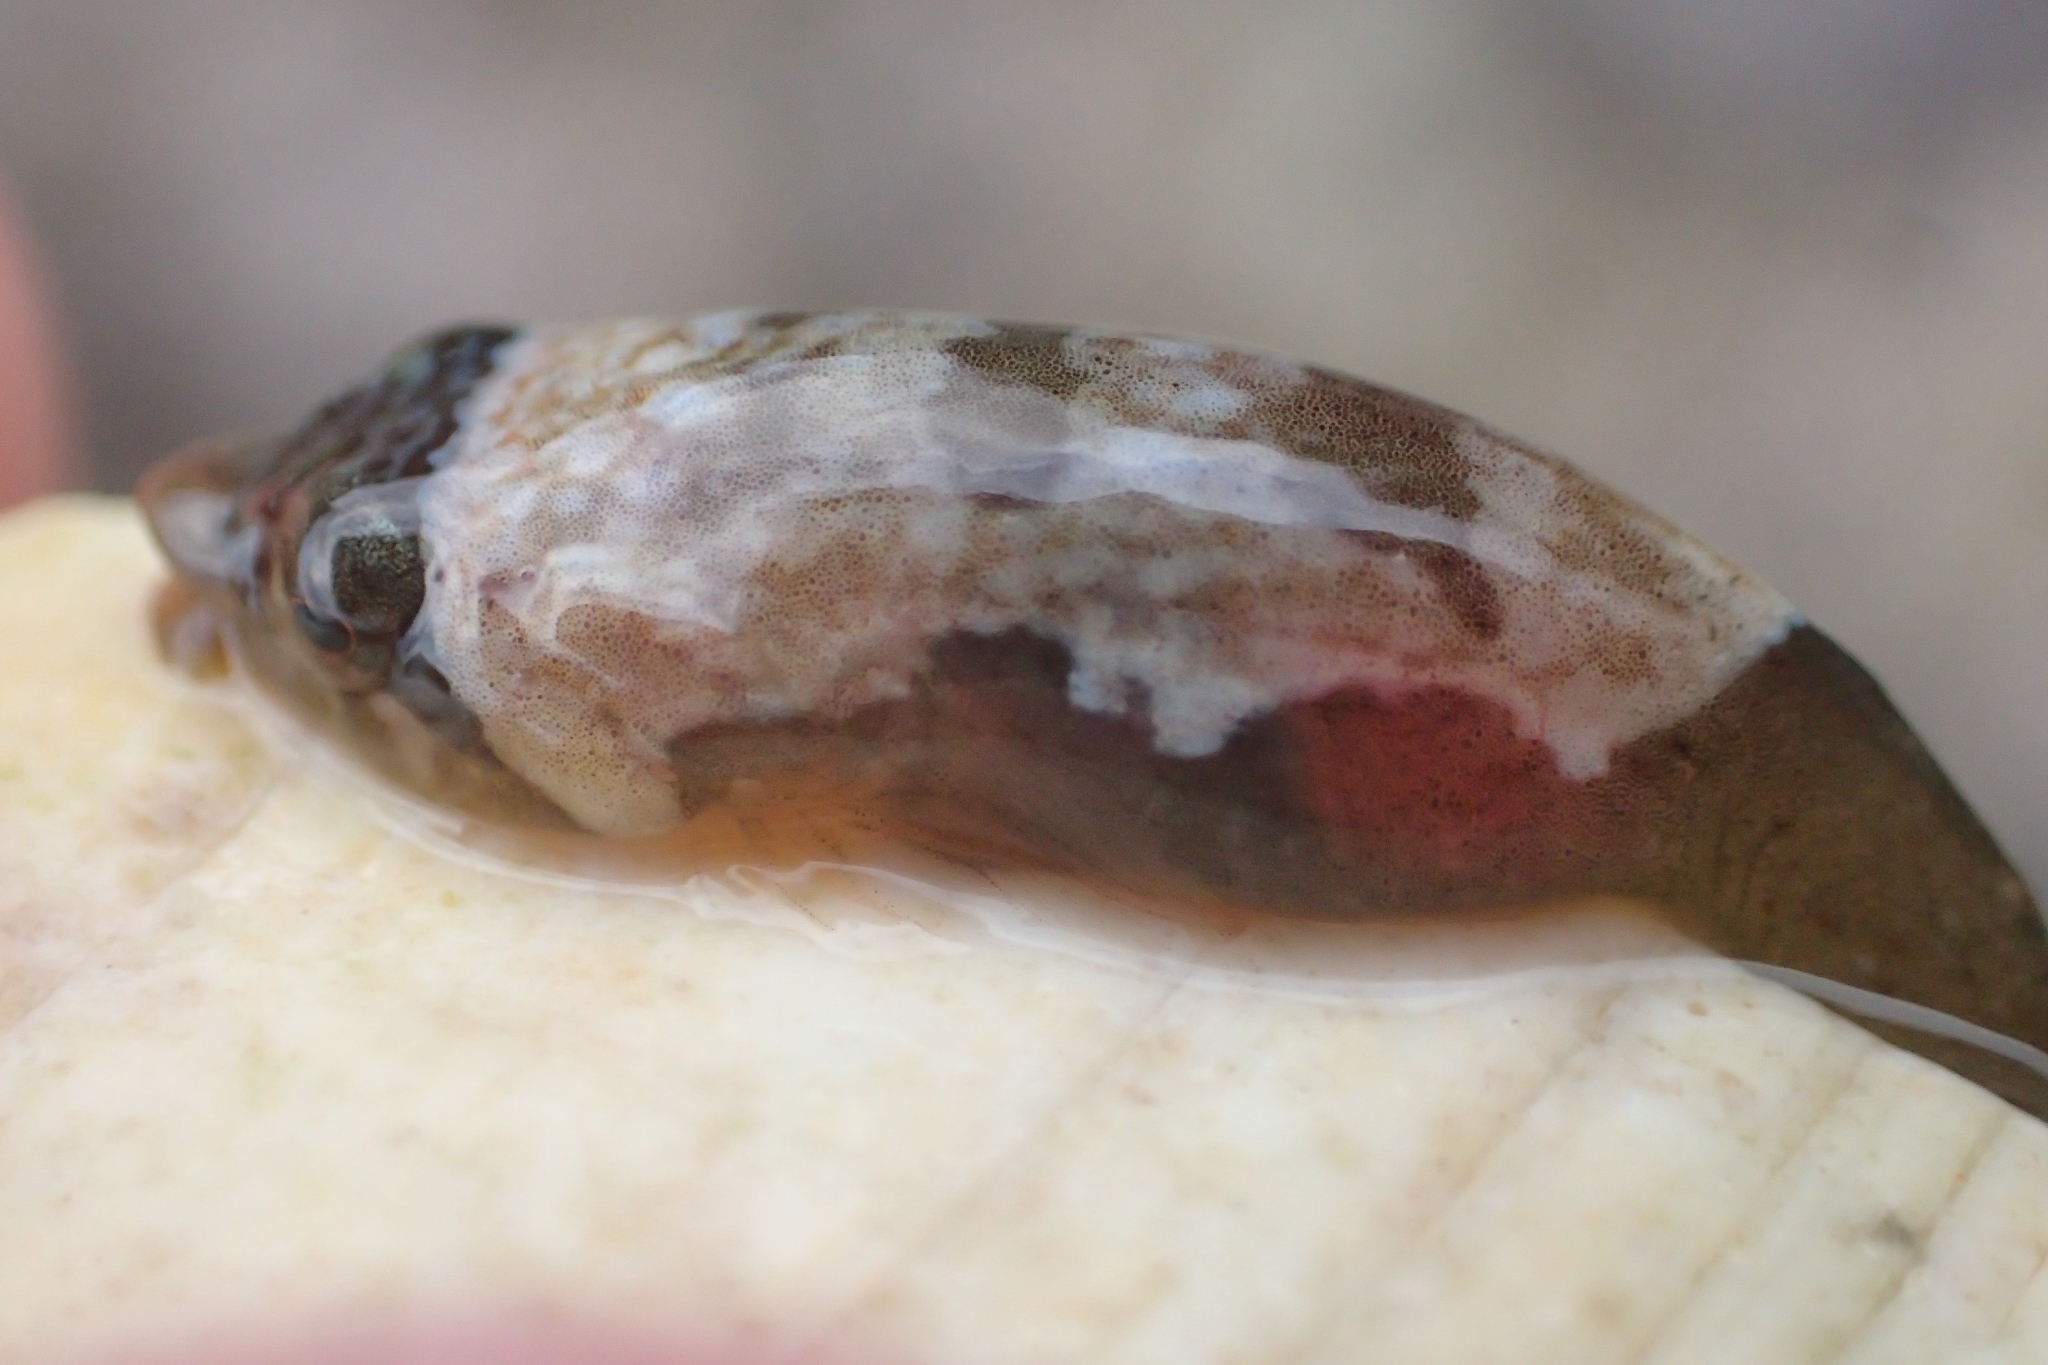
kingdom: Animalia
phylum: Chordata
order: Gobiesociformes
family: Gobiesocidae
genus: Trachelochismus
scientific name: Trachelochismus melobesia
